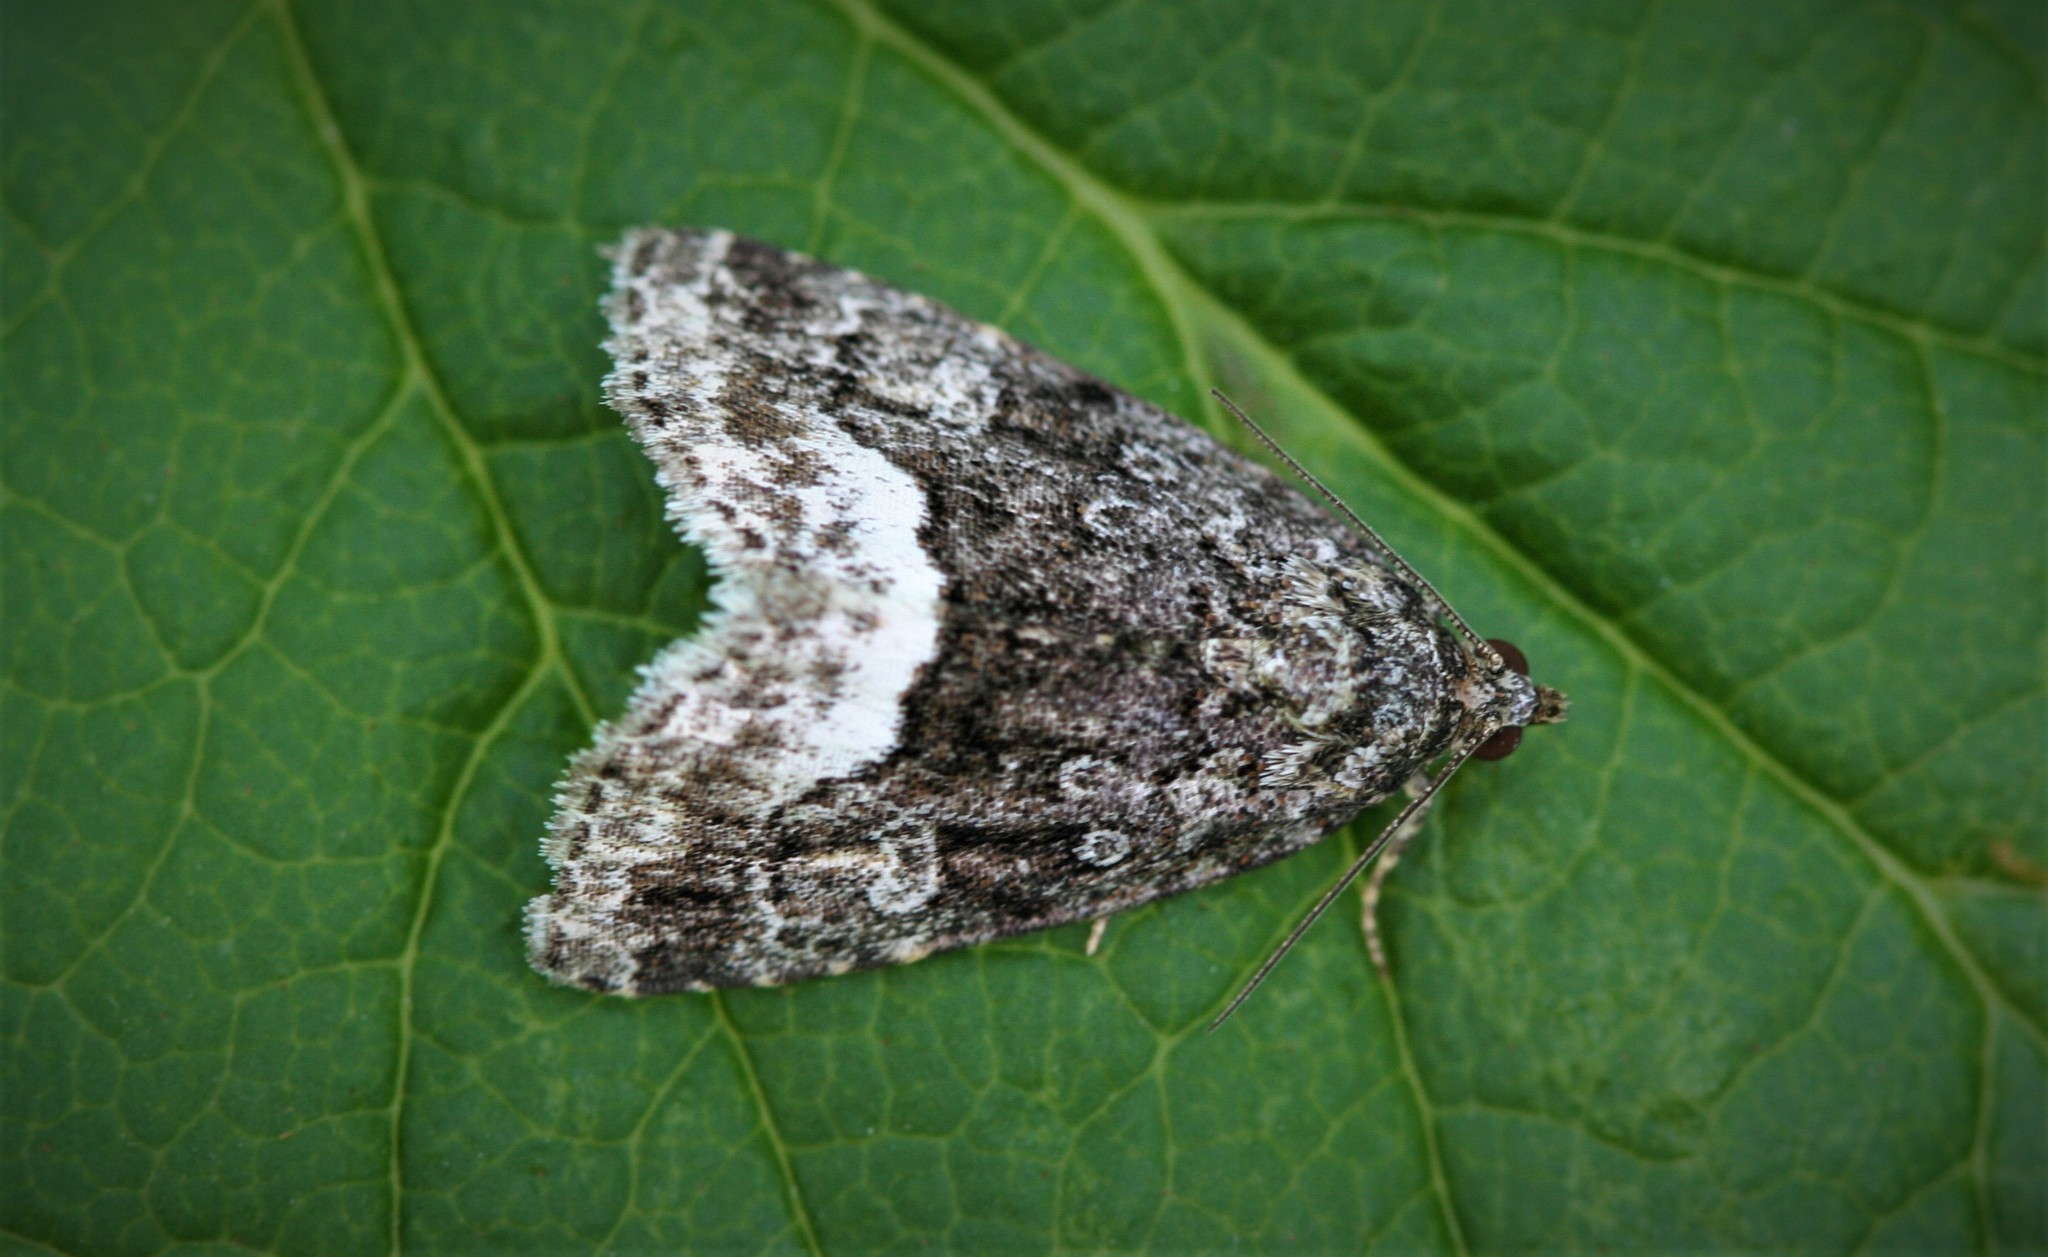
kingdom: Animalia
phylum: Arthropoda
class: Insecta
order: Lepidoptera
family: Noctuidae
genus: Deltote
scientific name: Deltote pygarga
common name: Marbled white spot
